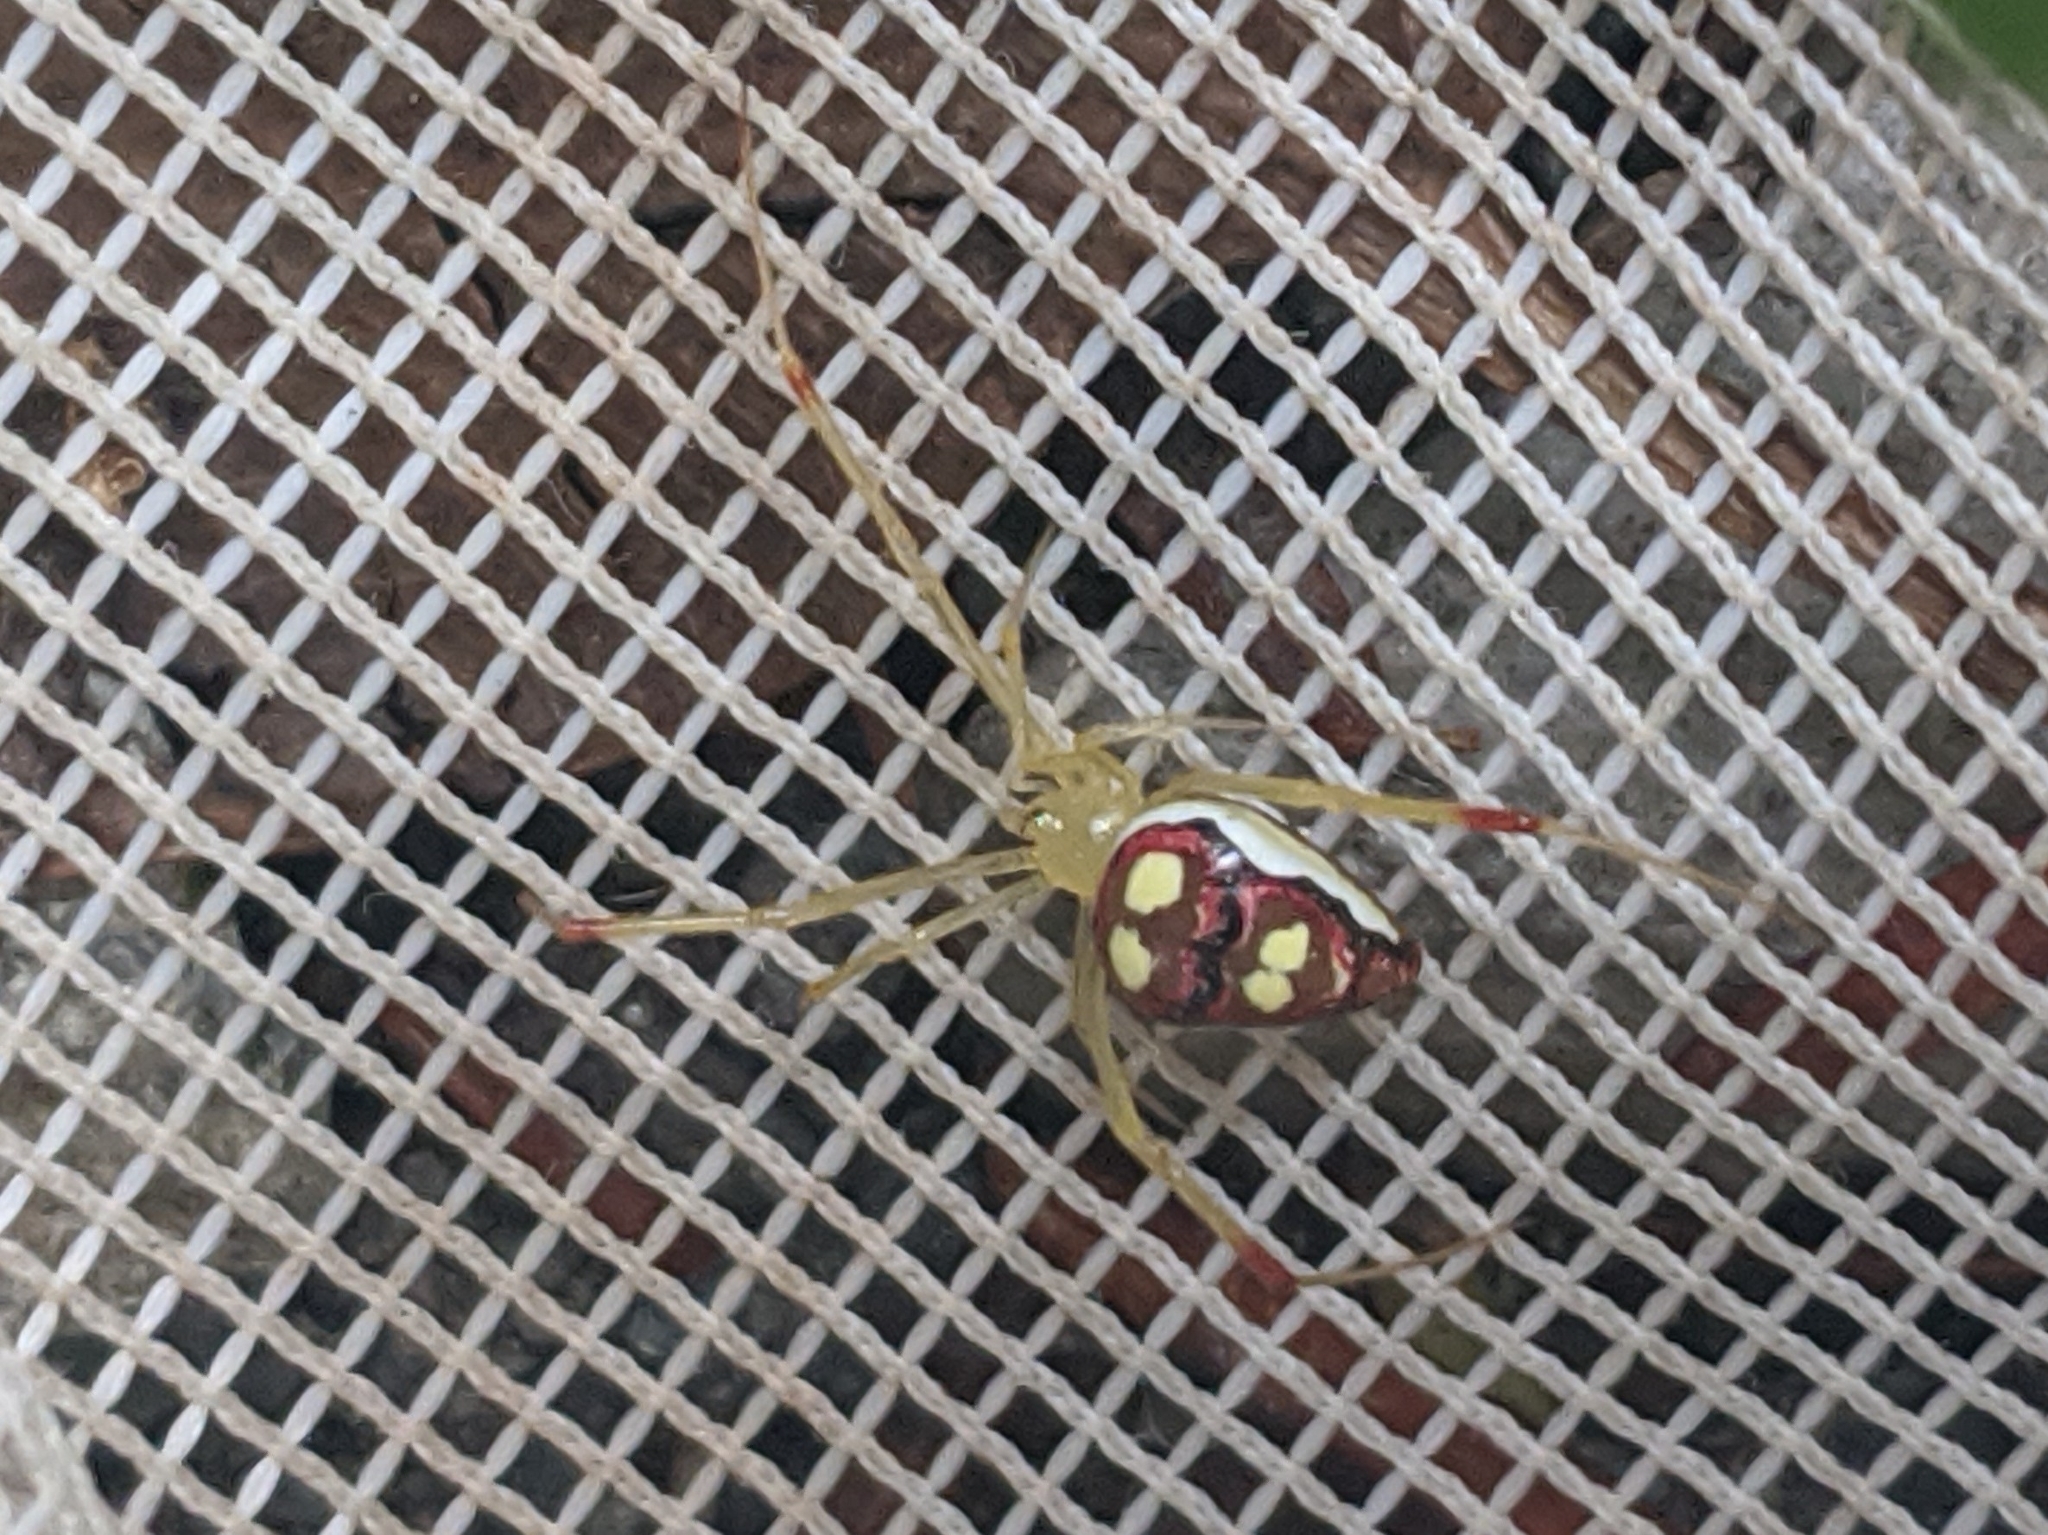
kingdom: Animalia
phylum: Arthropoda
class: Arachnida
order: Araneae
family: Theridiidae
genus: Spintharus
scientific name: Spintharus flavidus
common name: Cobweb spiders
